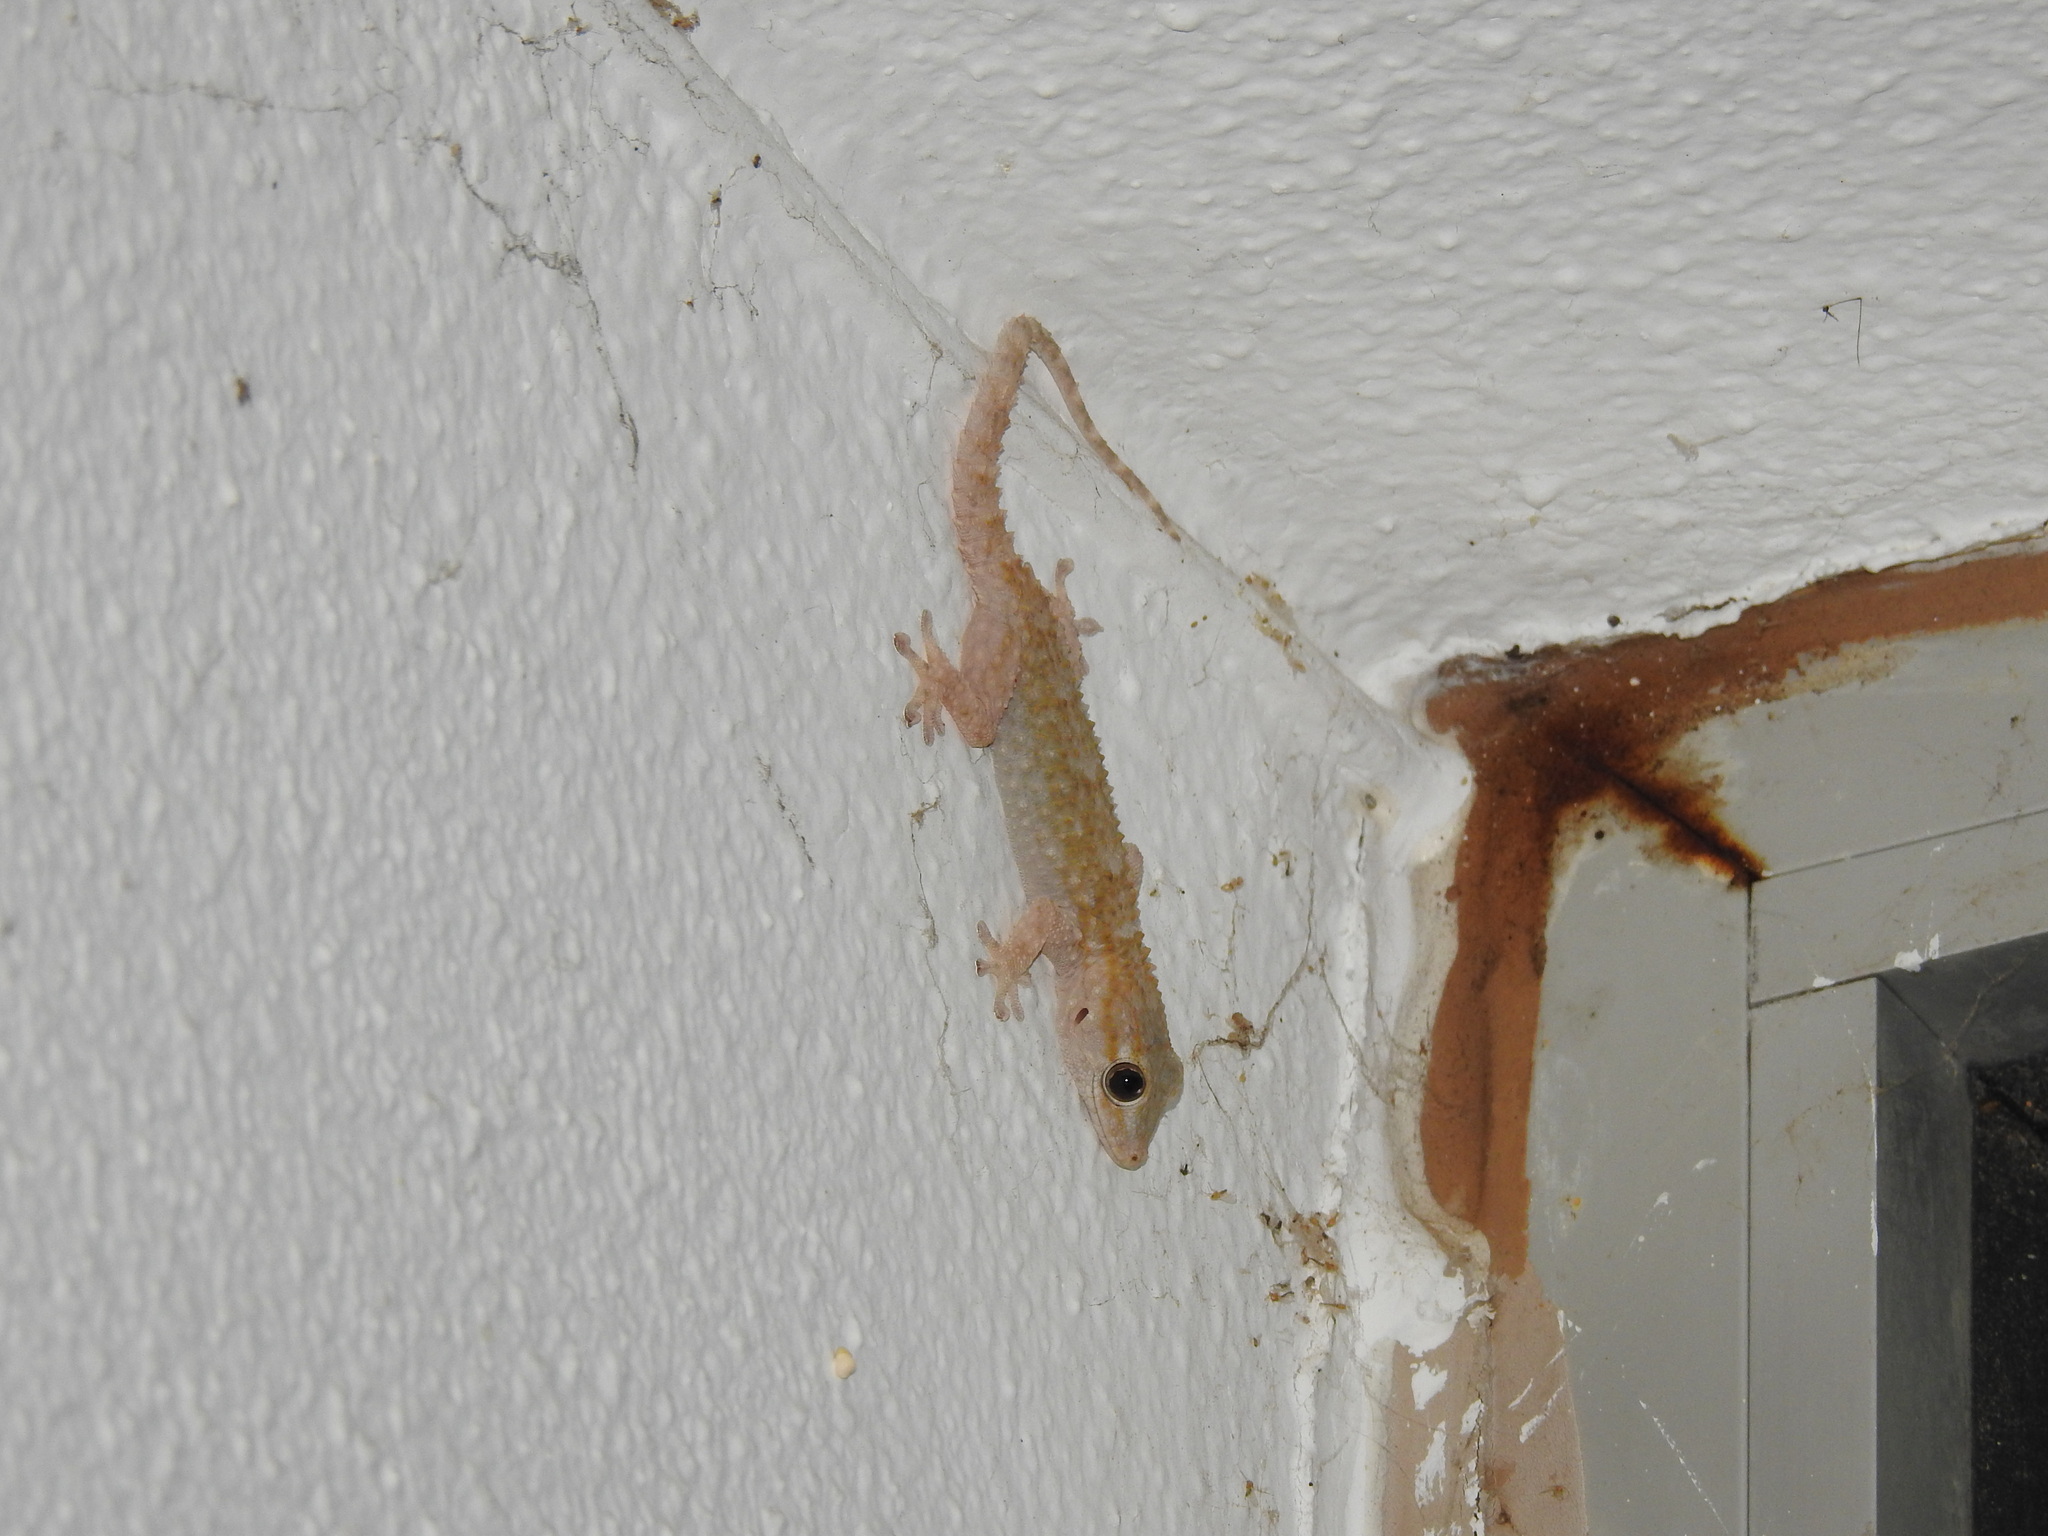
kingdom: Animalia
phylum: Chordata
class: Squamata
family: Phyllodactylidae
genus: Tarentola
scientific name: Tarentola mauritanica
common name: Moorish gecko
